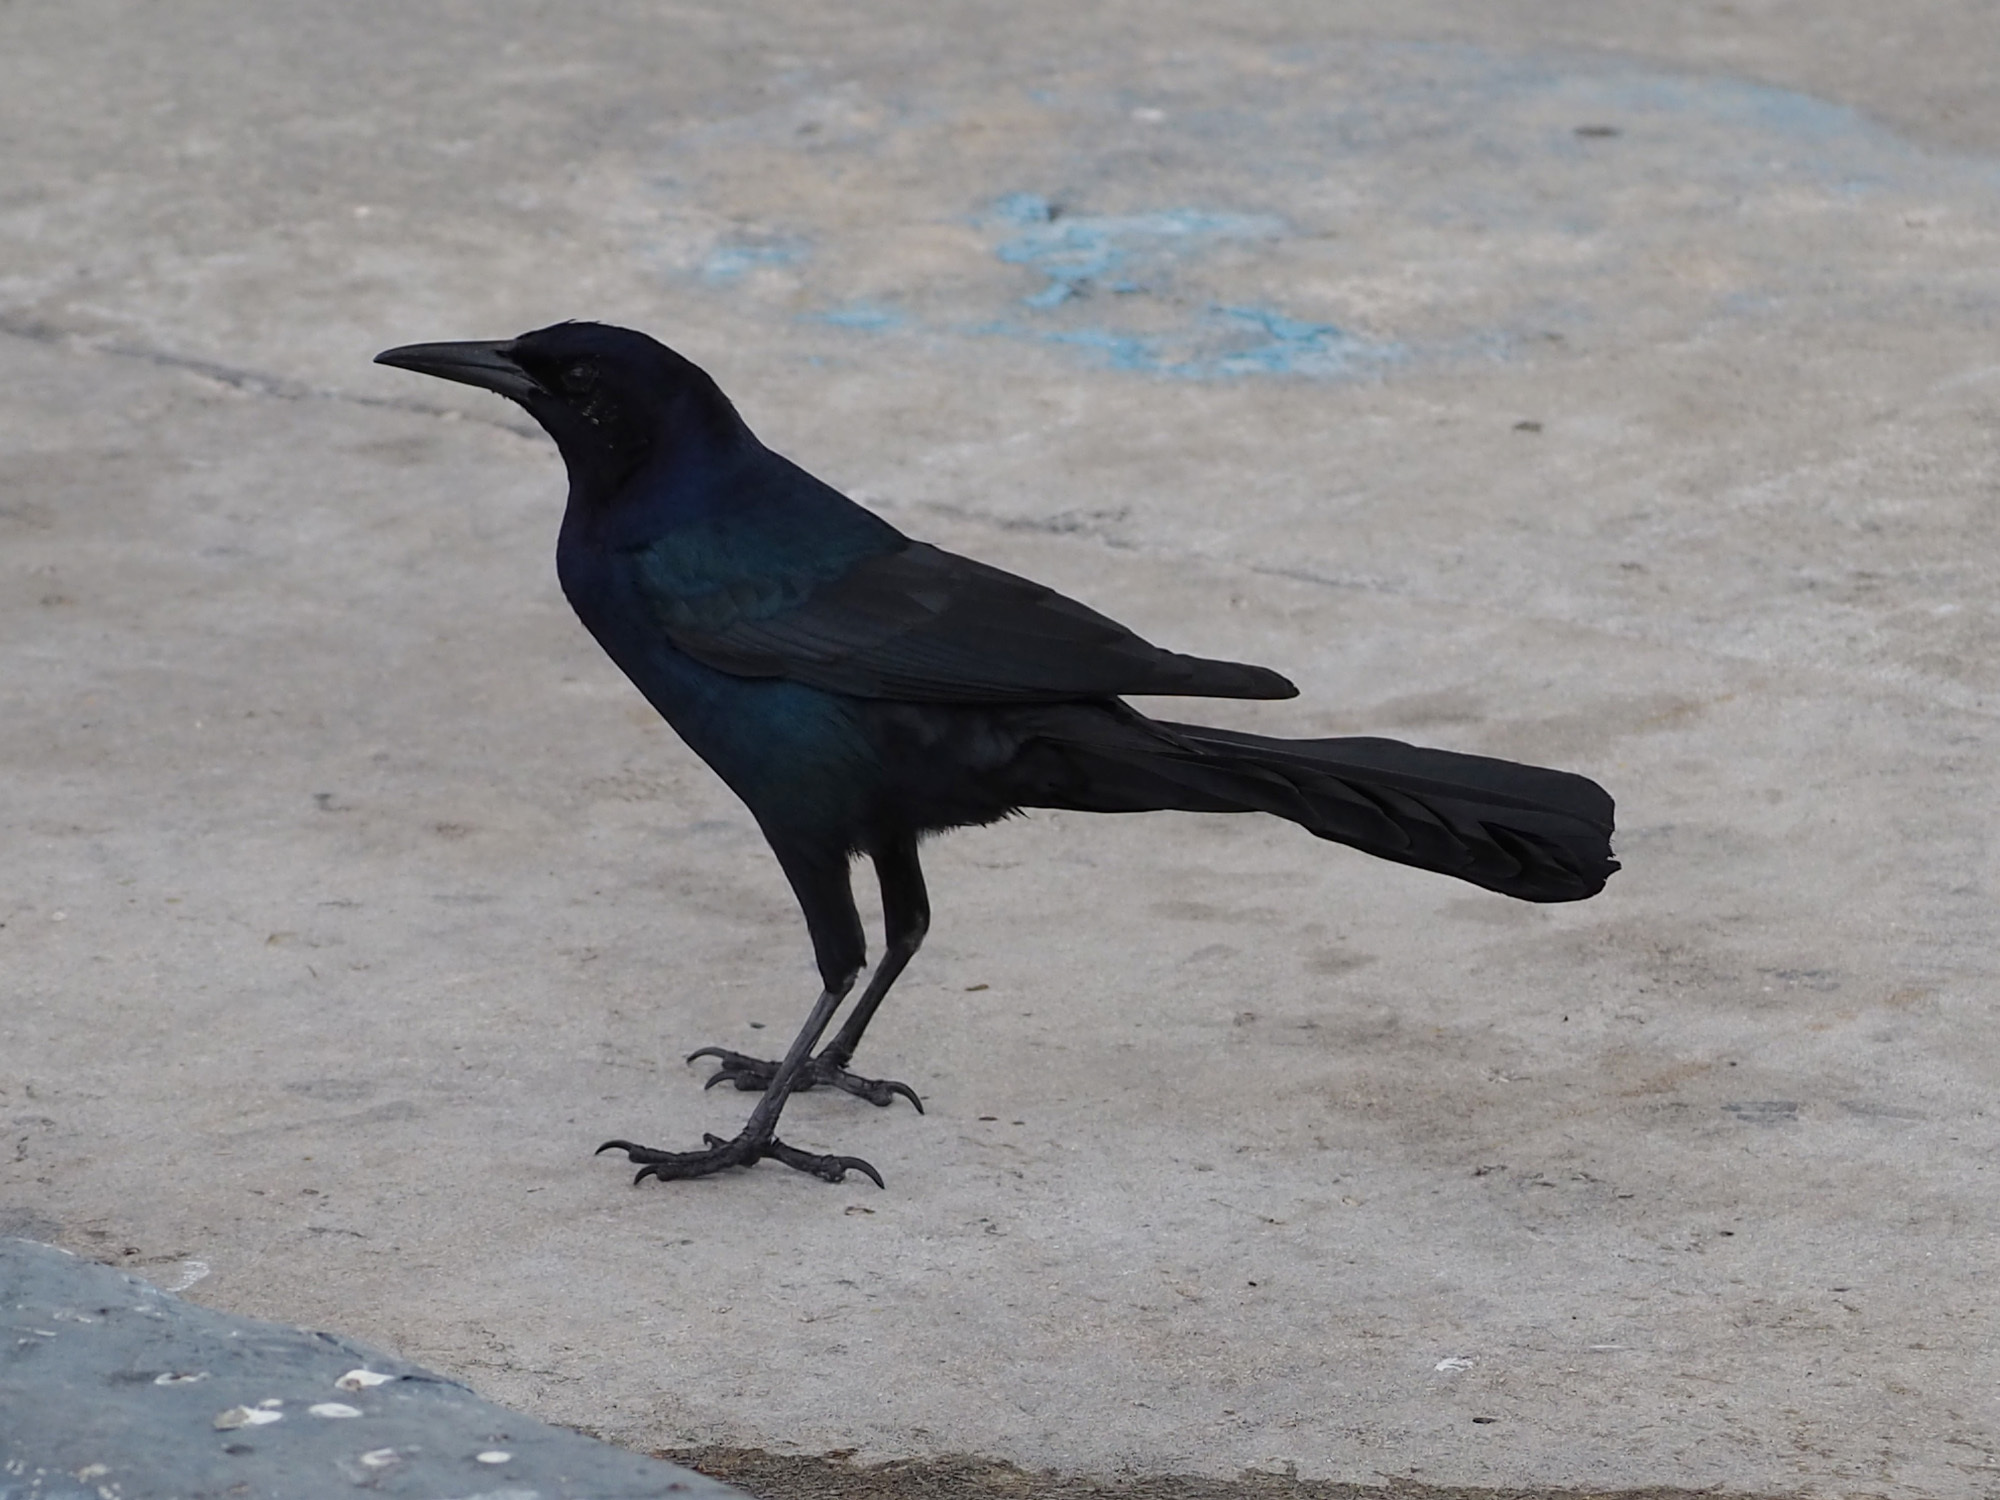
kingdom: Animalia
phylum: Chordata
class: Aves
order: Passeriformes
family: Icteridae
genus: Quiscalus
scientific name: Quiscalus major
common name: Boat-tailed grackle
